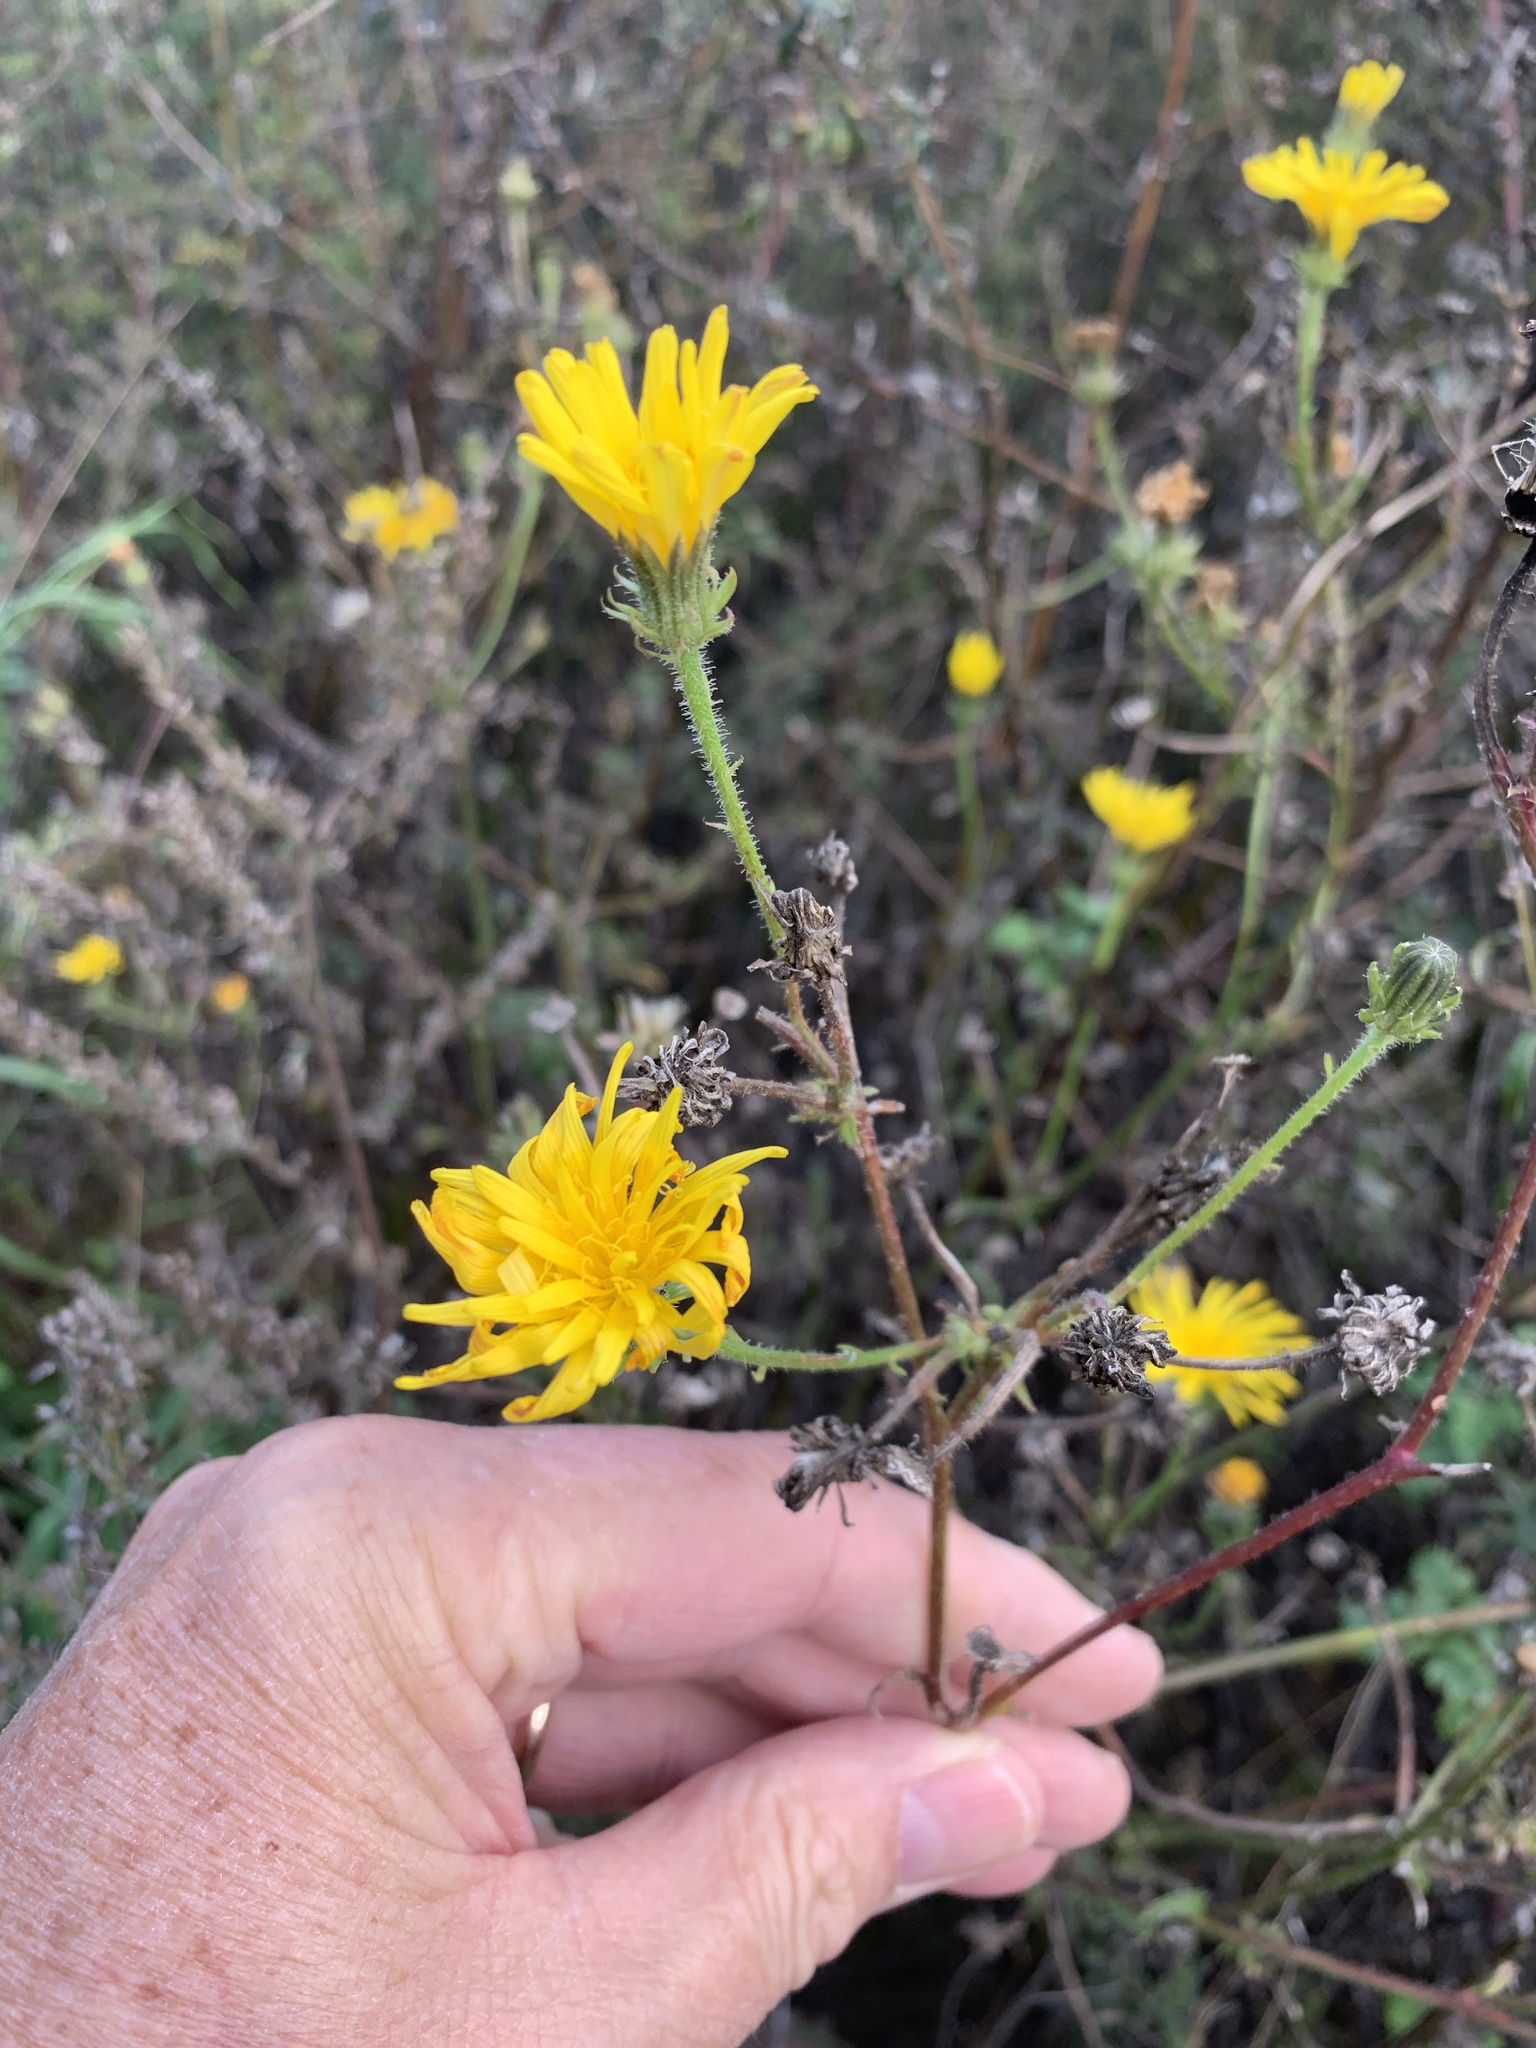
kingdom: Plantae
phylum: Tracheophyta
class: Magnoliopsida
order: Asterales
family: Asteraceae
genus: Picris
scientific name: Picris hieracioides
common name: Hawkweed oxtongue
